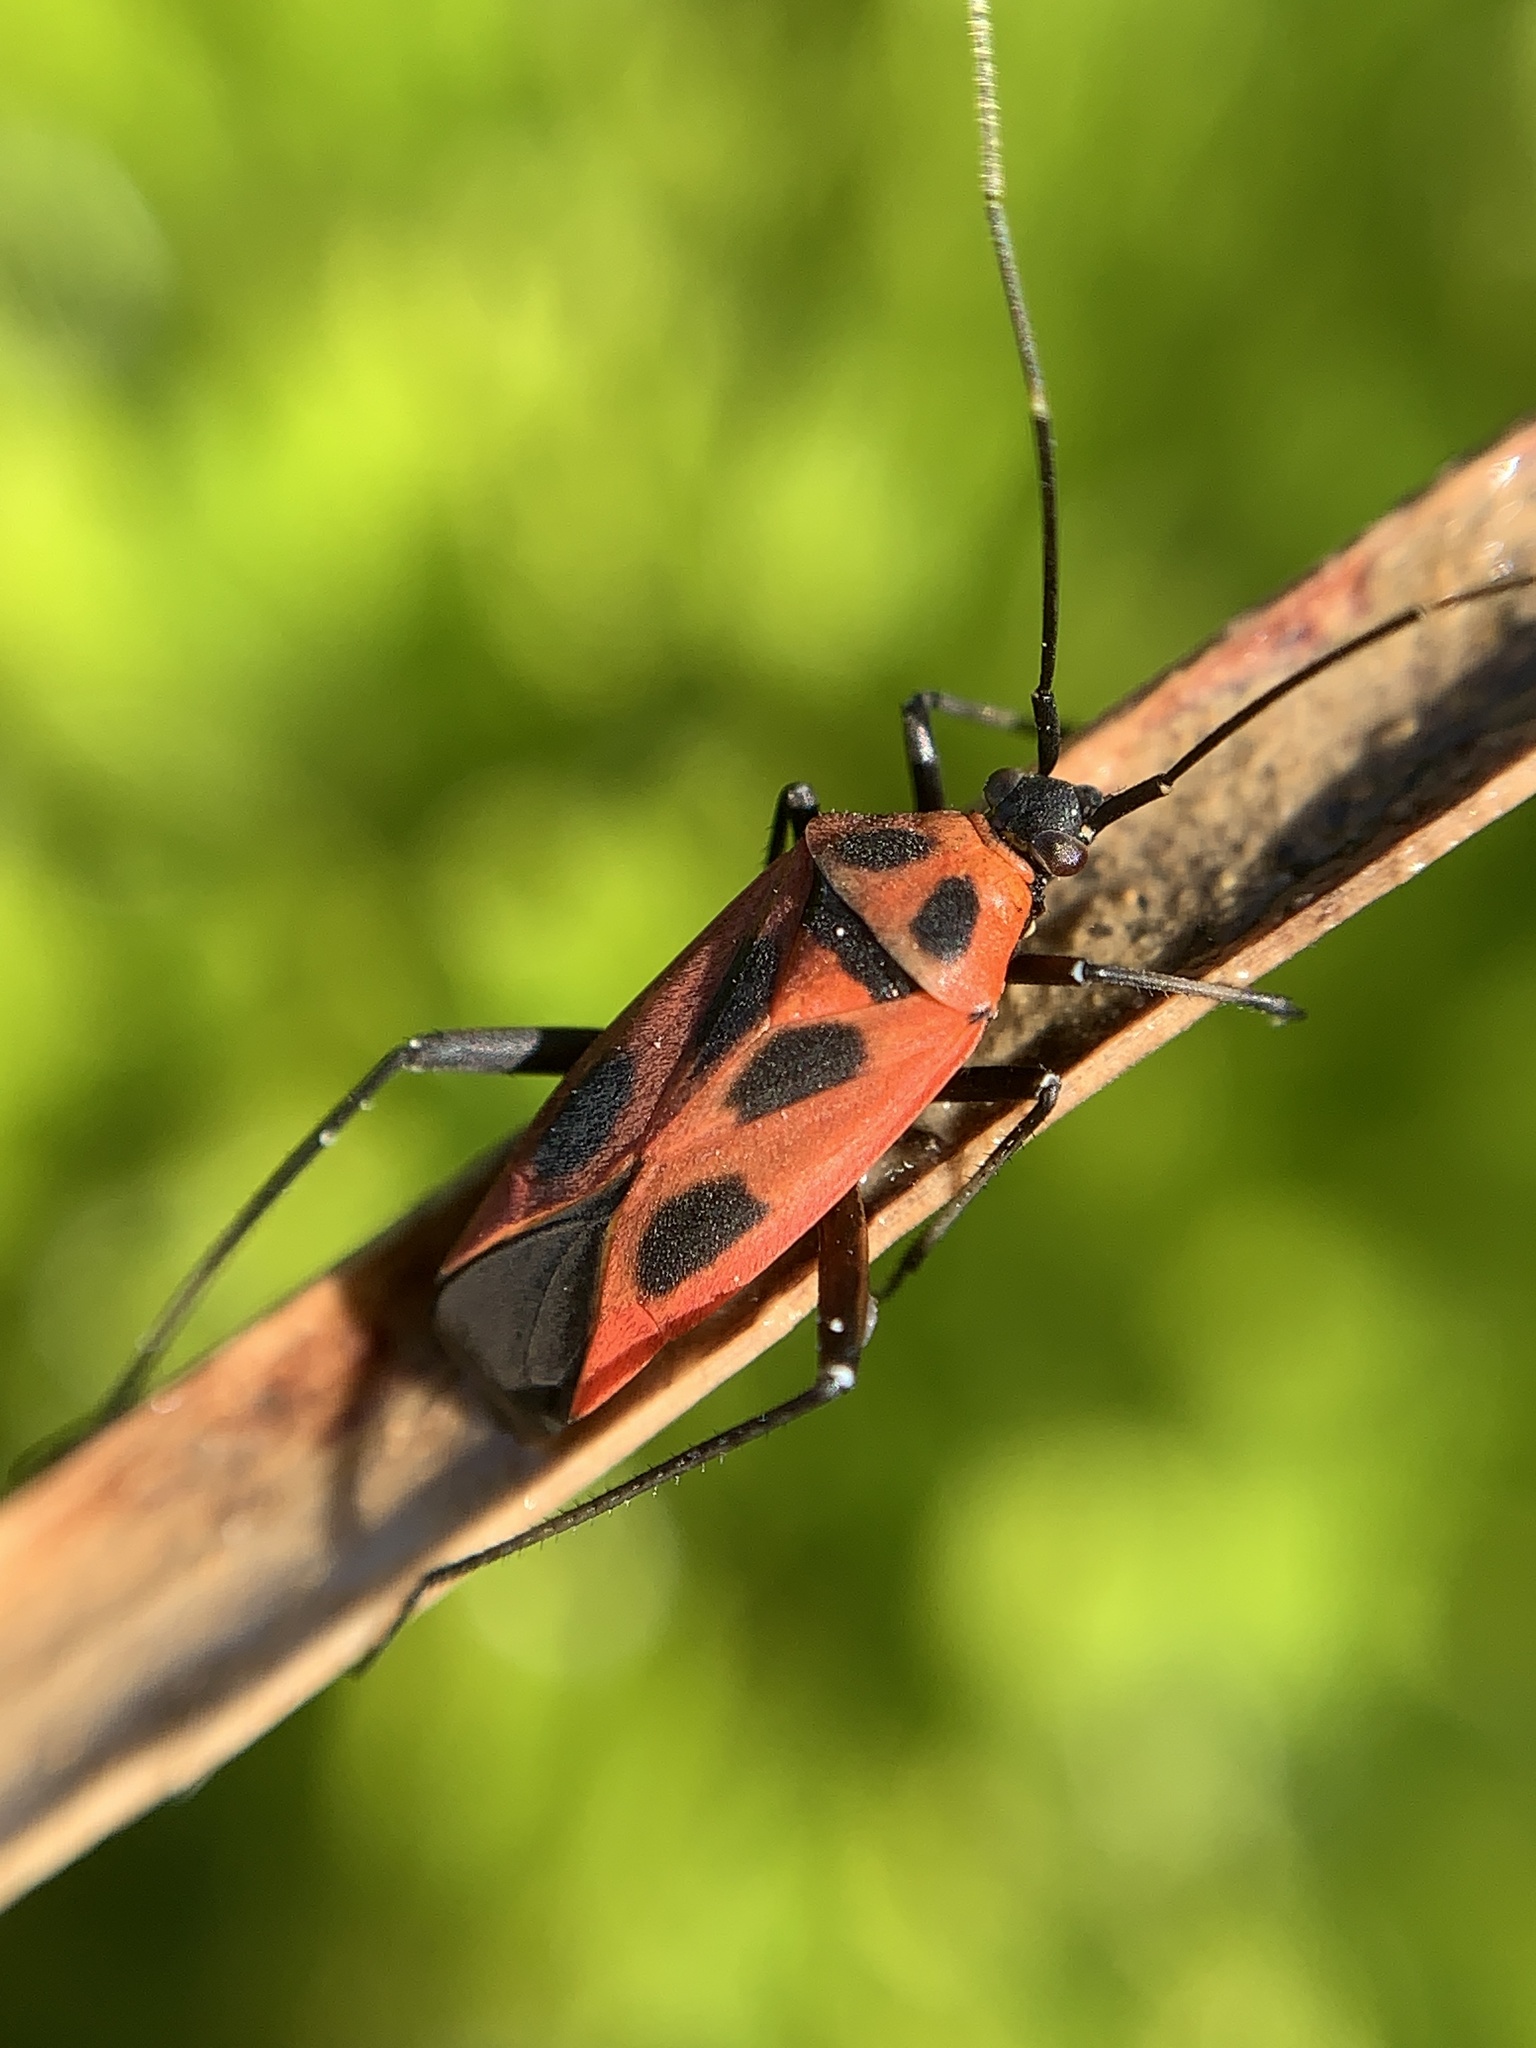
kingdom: Animalia
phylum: Arthropoda
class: Insecta
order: Hemiptera
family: Miridae
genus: Calocoris
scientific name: Calocoris nemoralis
